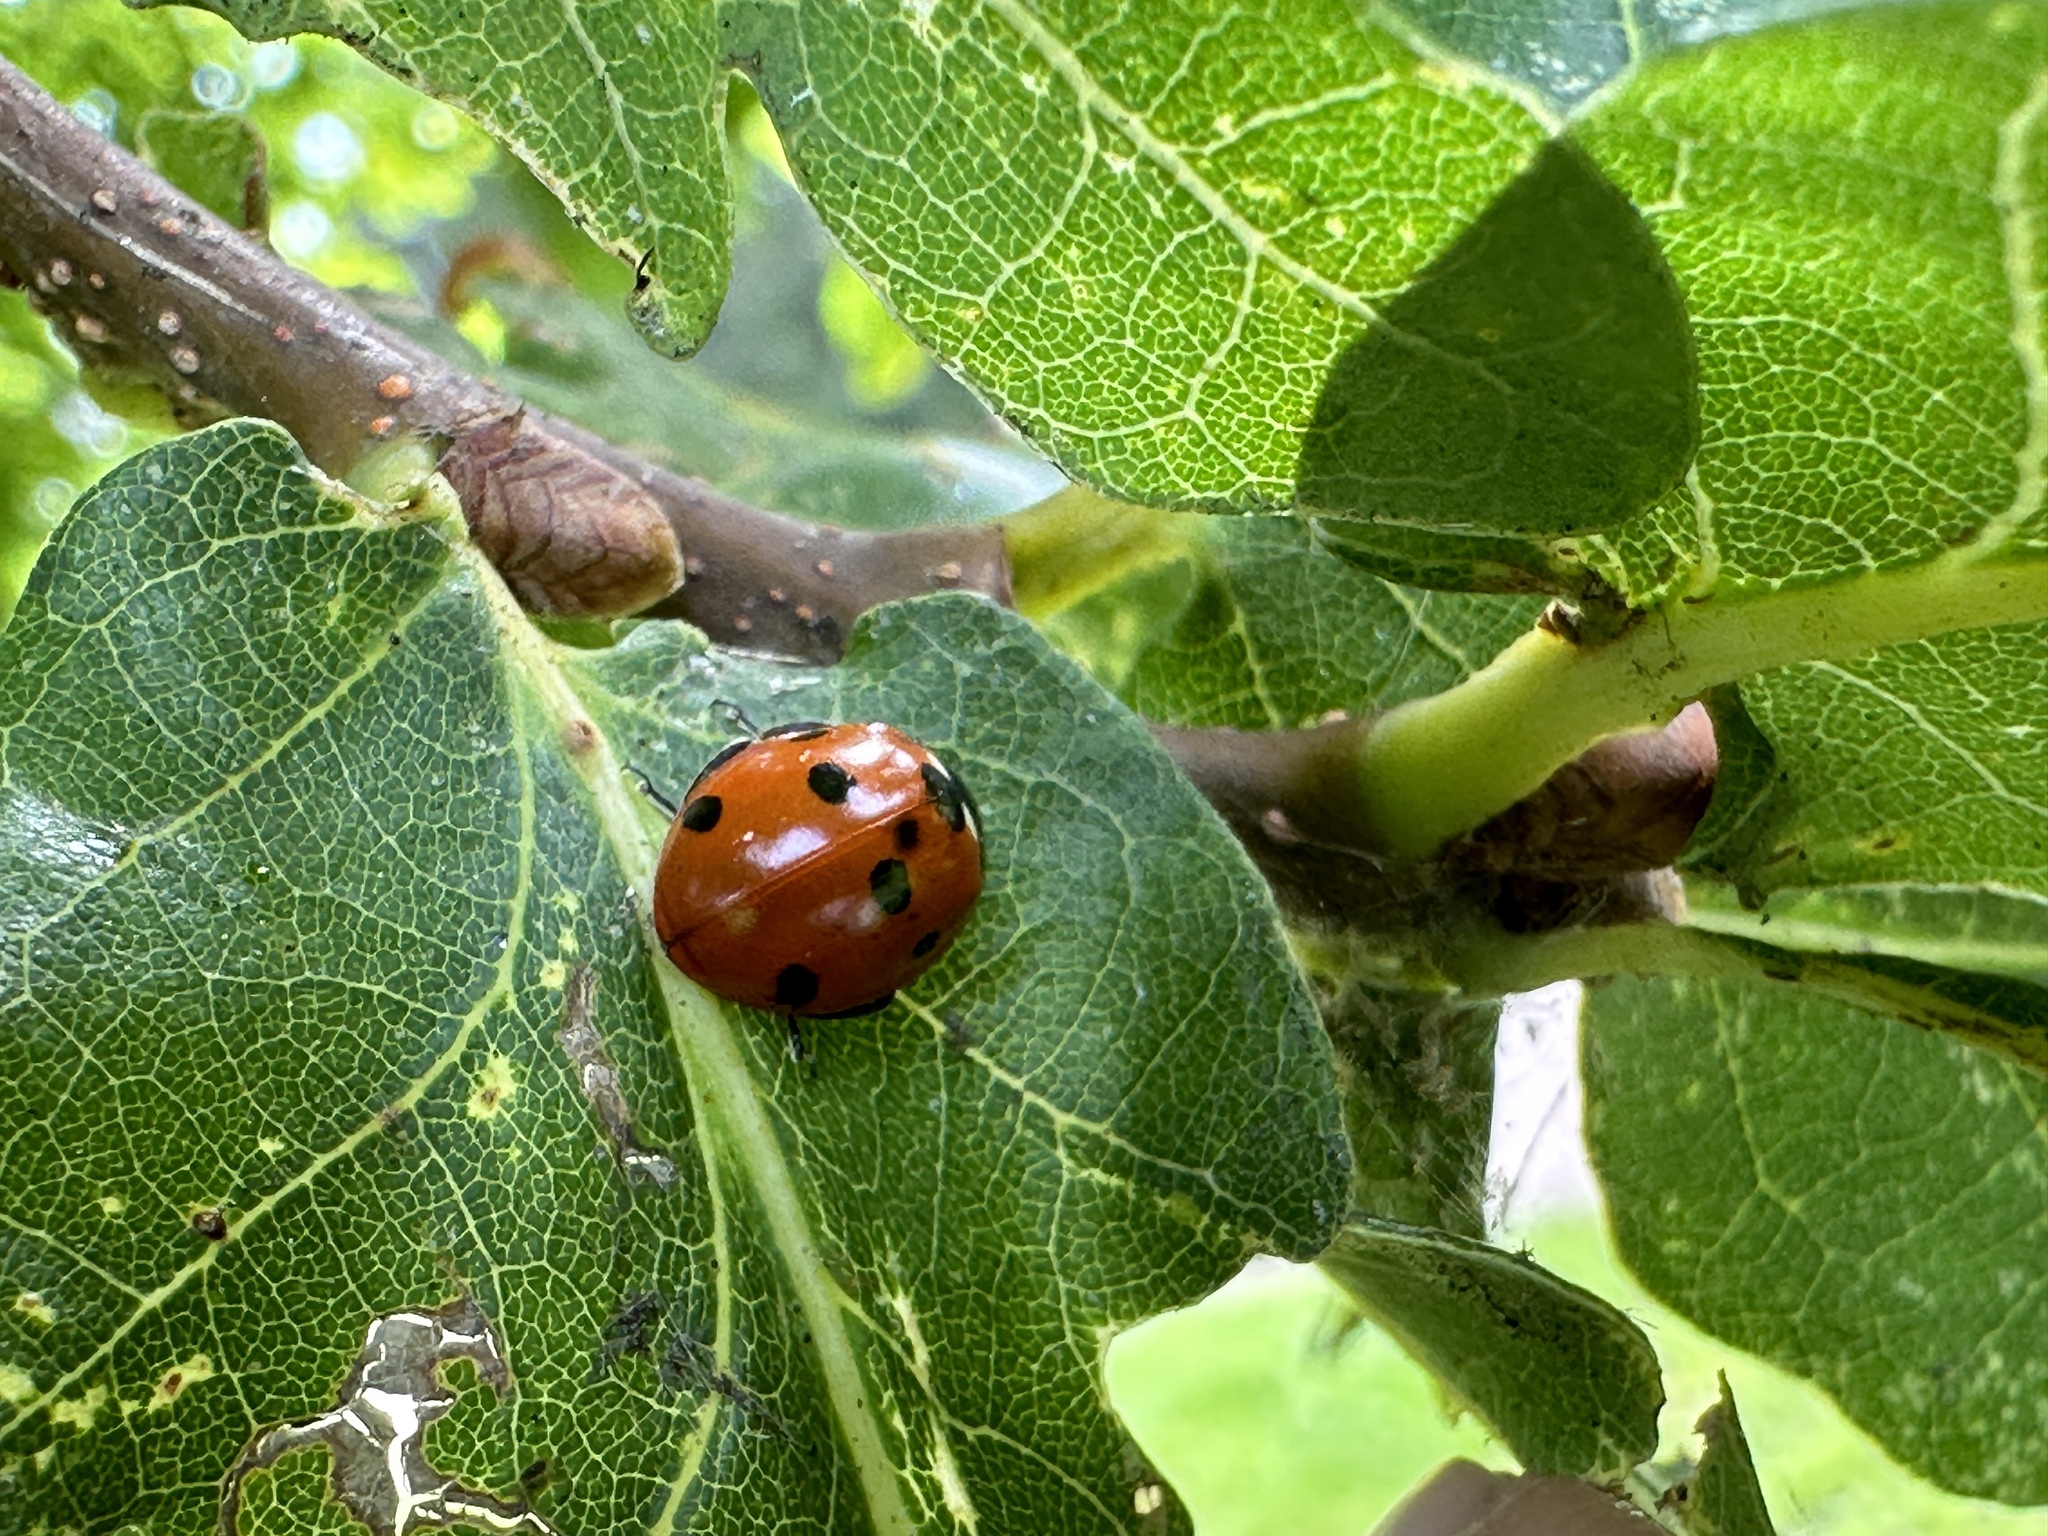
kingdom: Animalia
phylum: Arthropoda
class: Insecta
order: Coleoptera
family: Coccinellidae
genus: Coccinella
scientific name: Coccinella septempunctata
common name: Sevenspotted lady beetle
